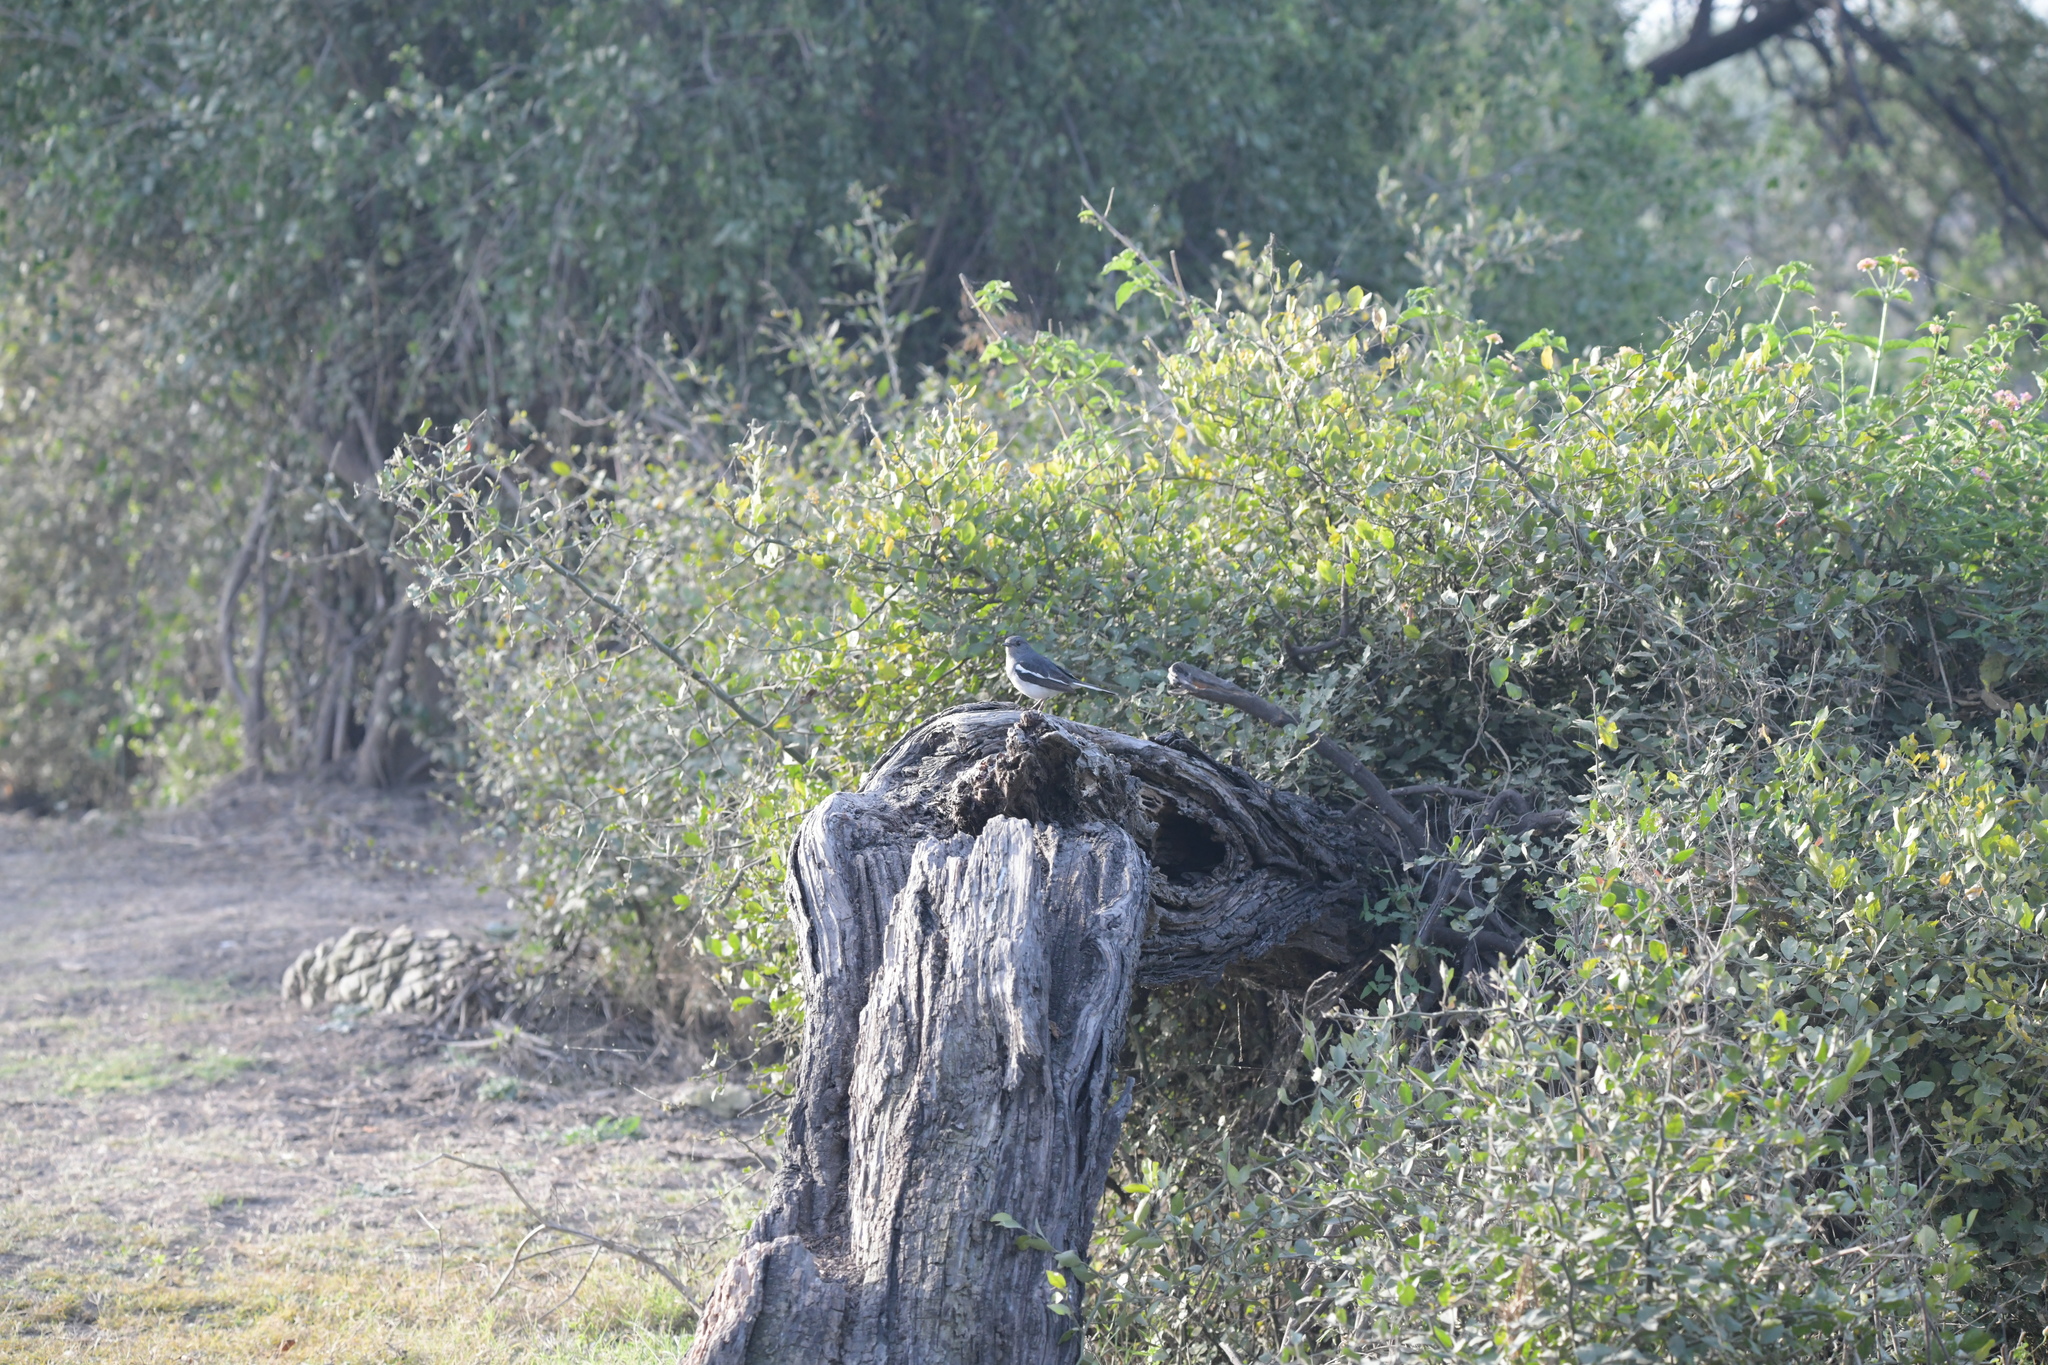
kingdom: Animalia
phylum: Chordata
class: Aves
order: Passeriformes
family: Muscicapidae
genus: Copsychus
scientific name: Copsychus saularis
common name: Oriental magpie-robin
